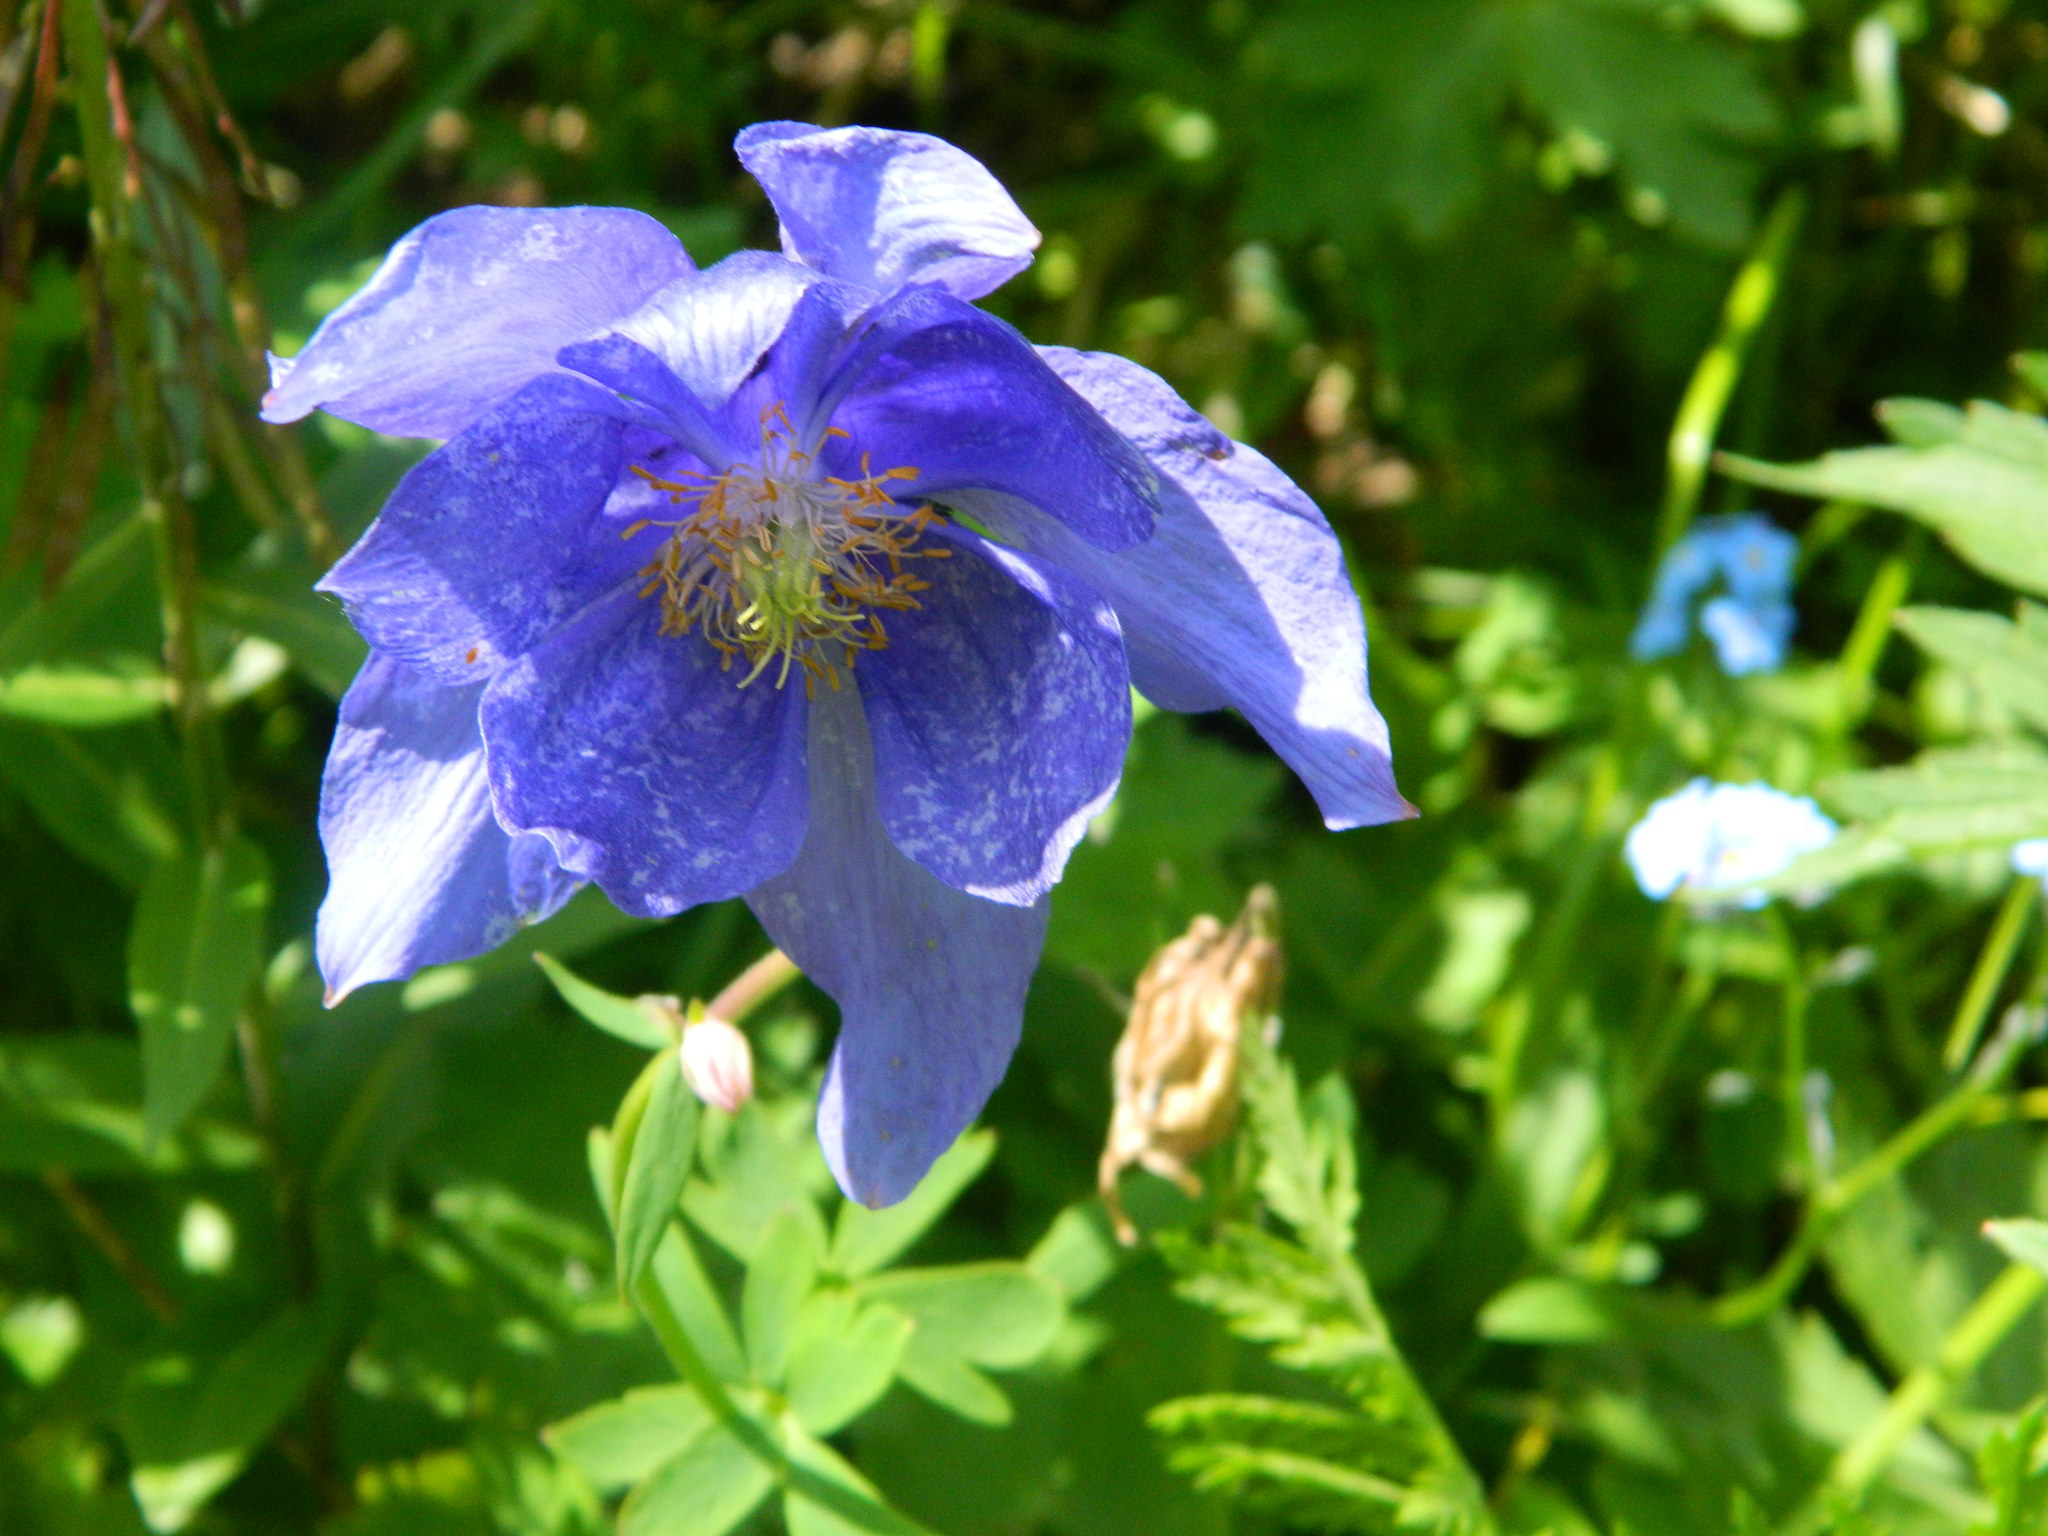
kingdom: Plantae
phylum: Tracheophyta
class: Magnoliopsida
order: Ranunculales
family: Ranunculaceae
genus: Aquilegia
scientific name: Aquilegia glandulosa
